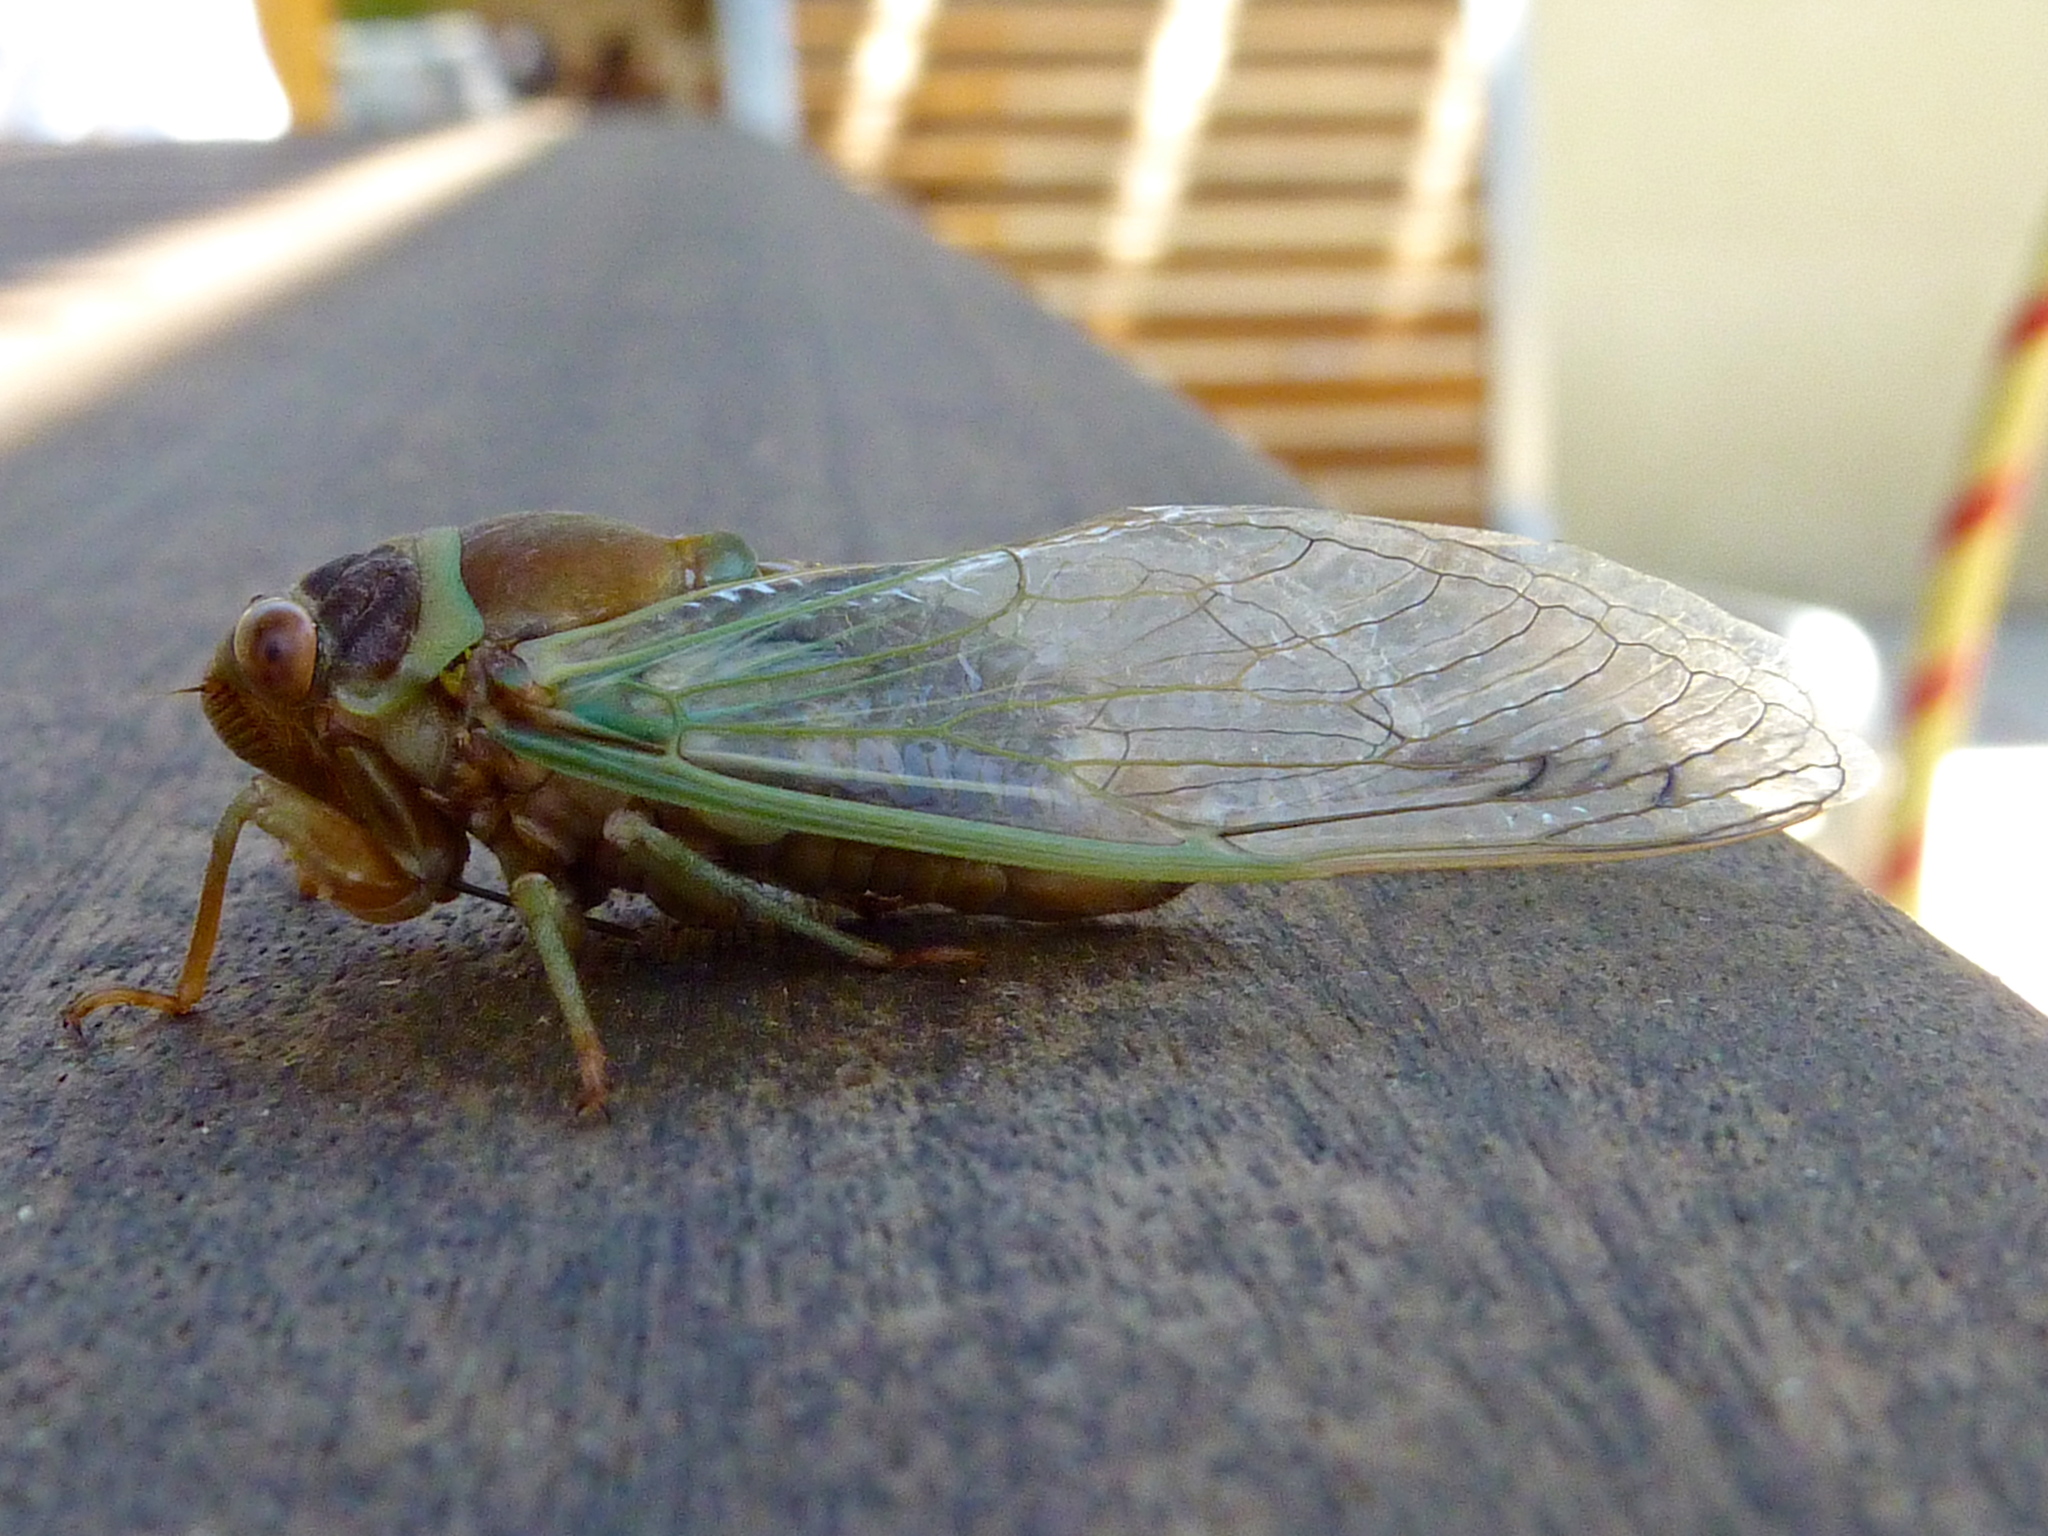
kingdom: Animalia
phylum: Arthropoda
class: Insecta
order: Hemiptera
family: Cicadidae
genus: Diceroprocta
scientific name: Diceroprocta apache
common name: Desert cicada
